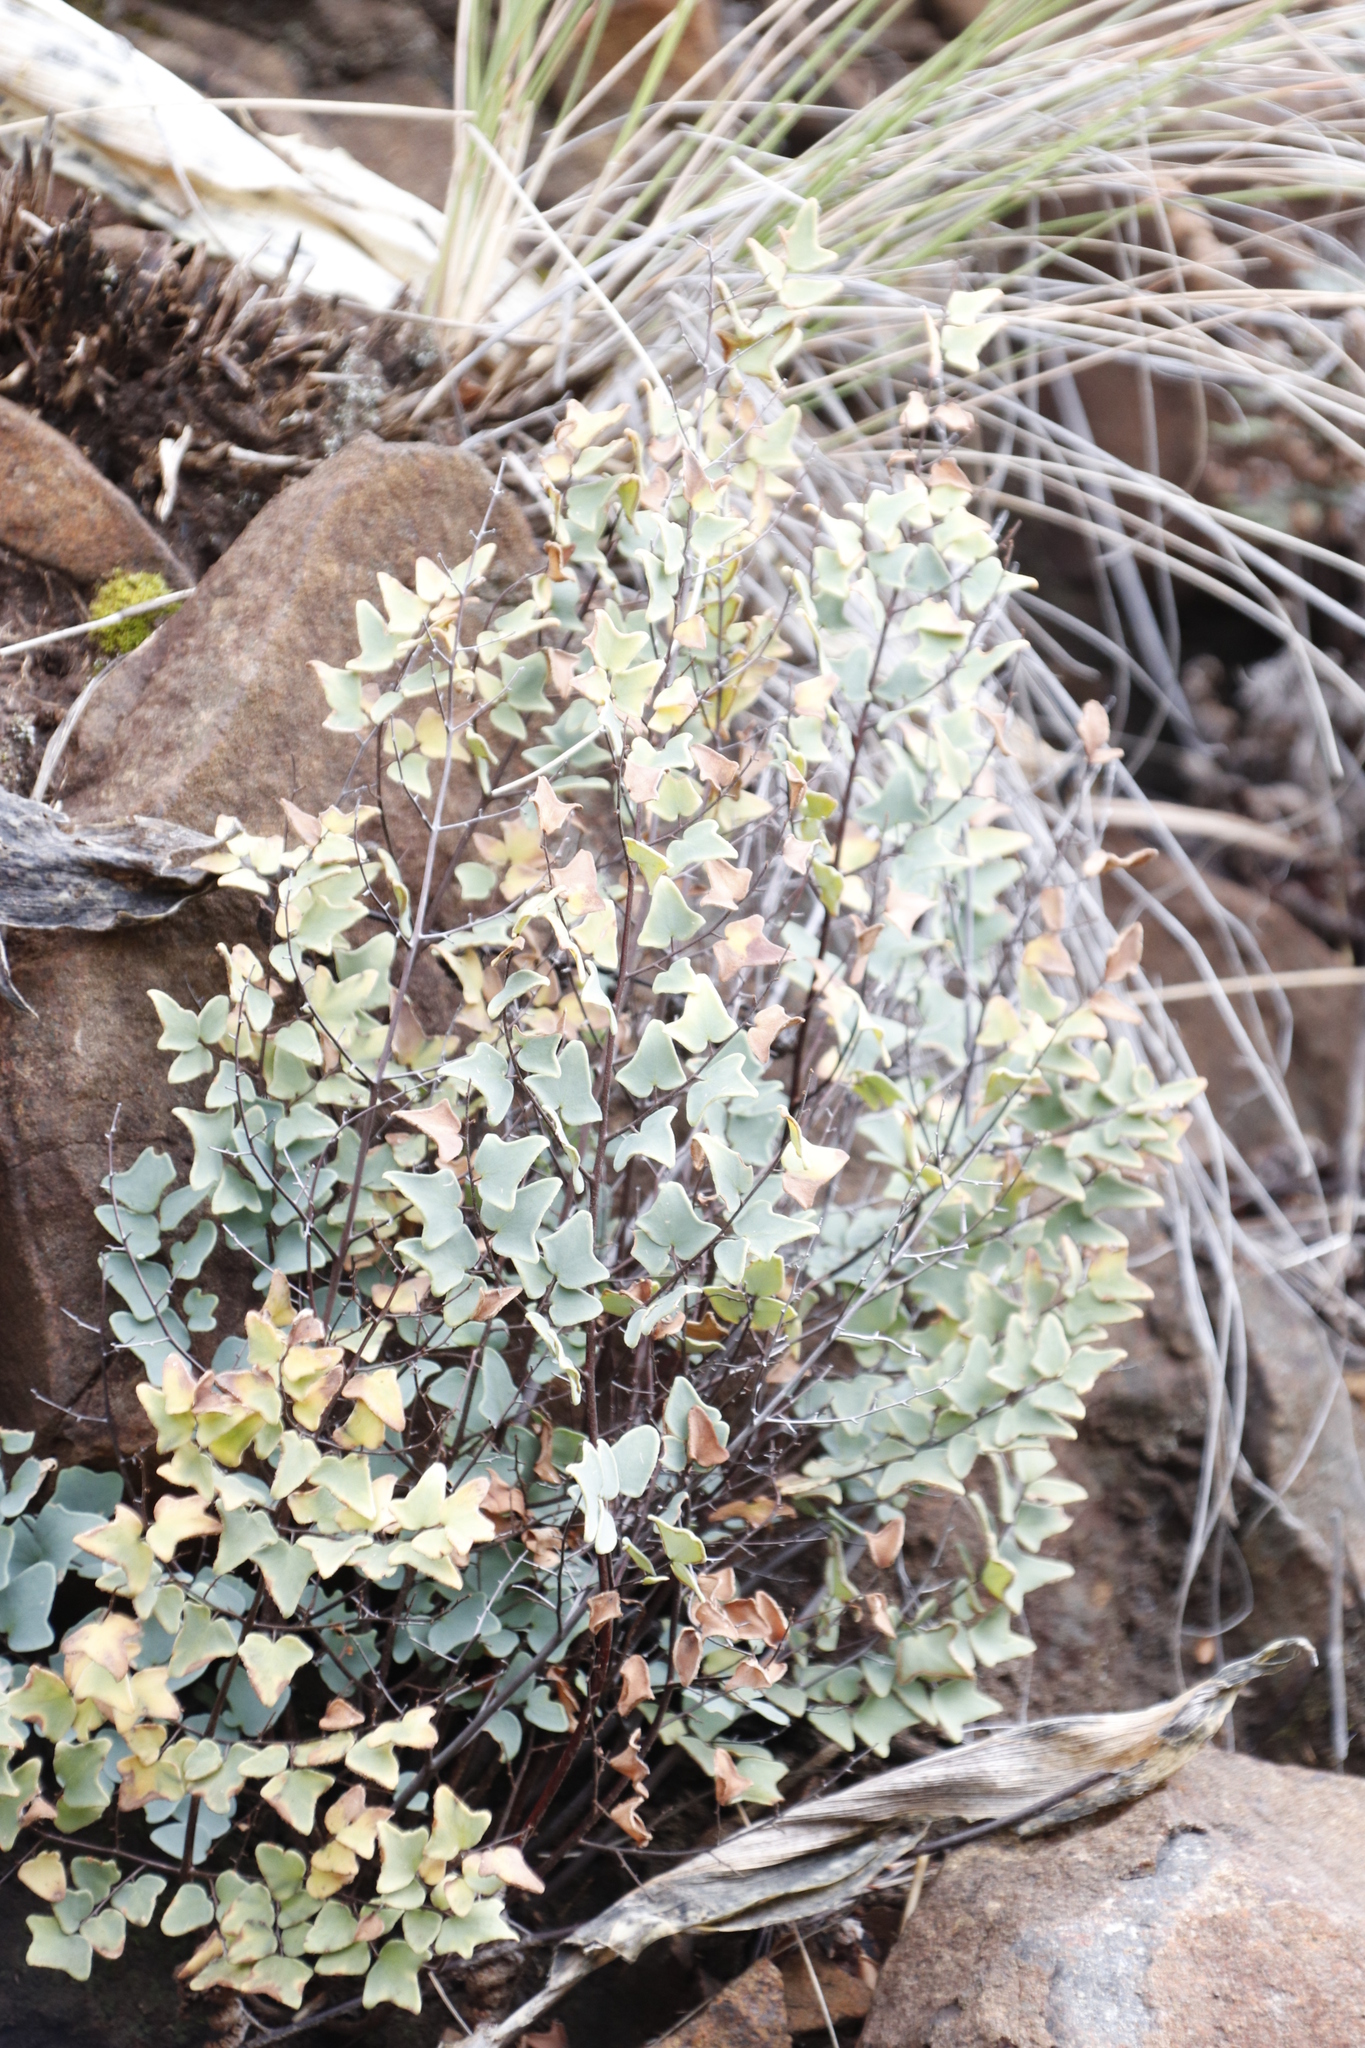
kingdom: Plantae
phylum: Tracheophyta
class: Polypodiopsida
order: Polypodiales
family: Pteridaceae
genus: Pellaea
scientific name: Pellaea calomelanos
